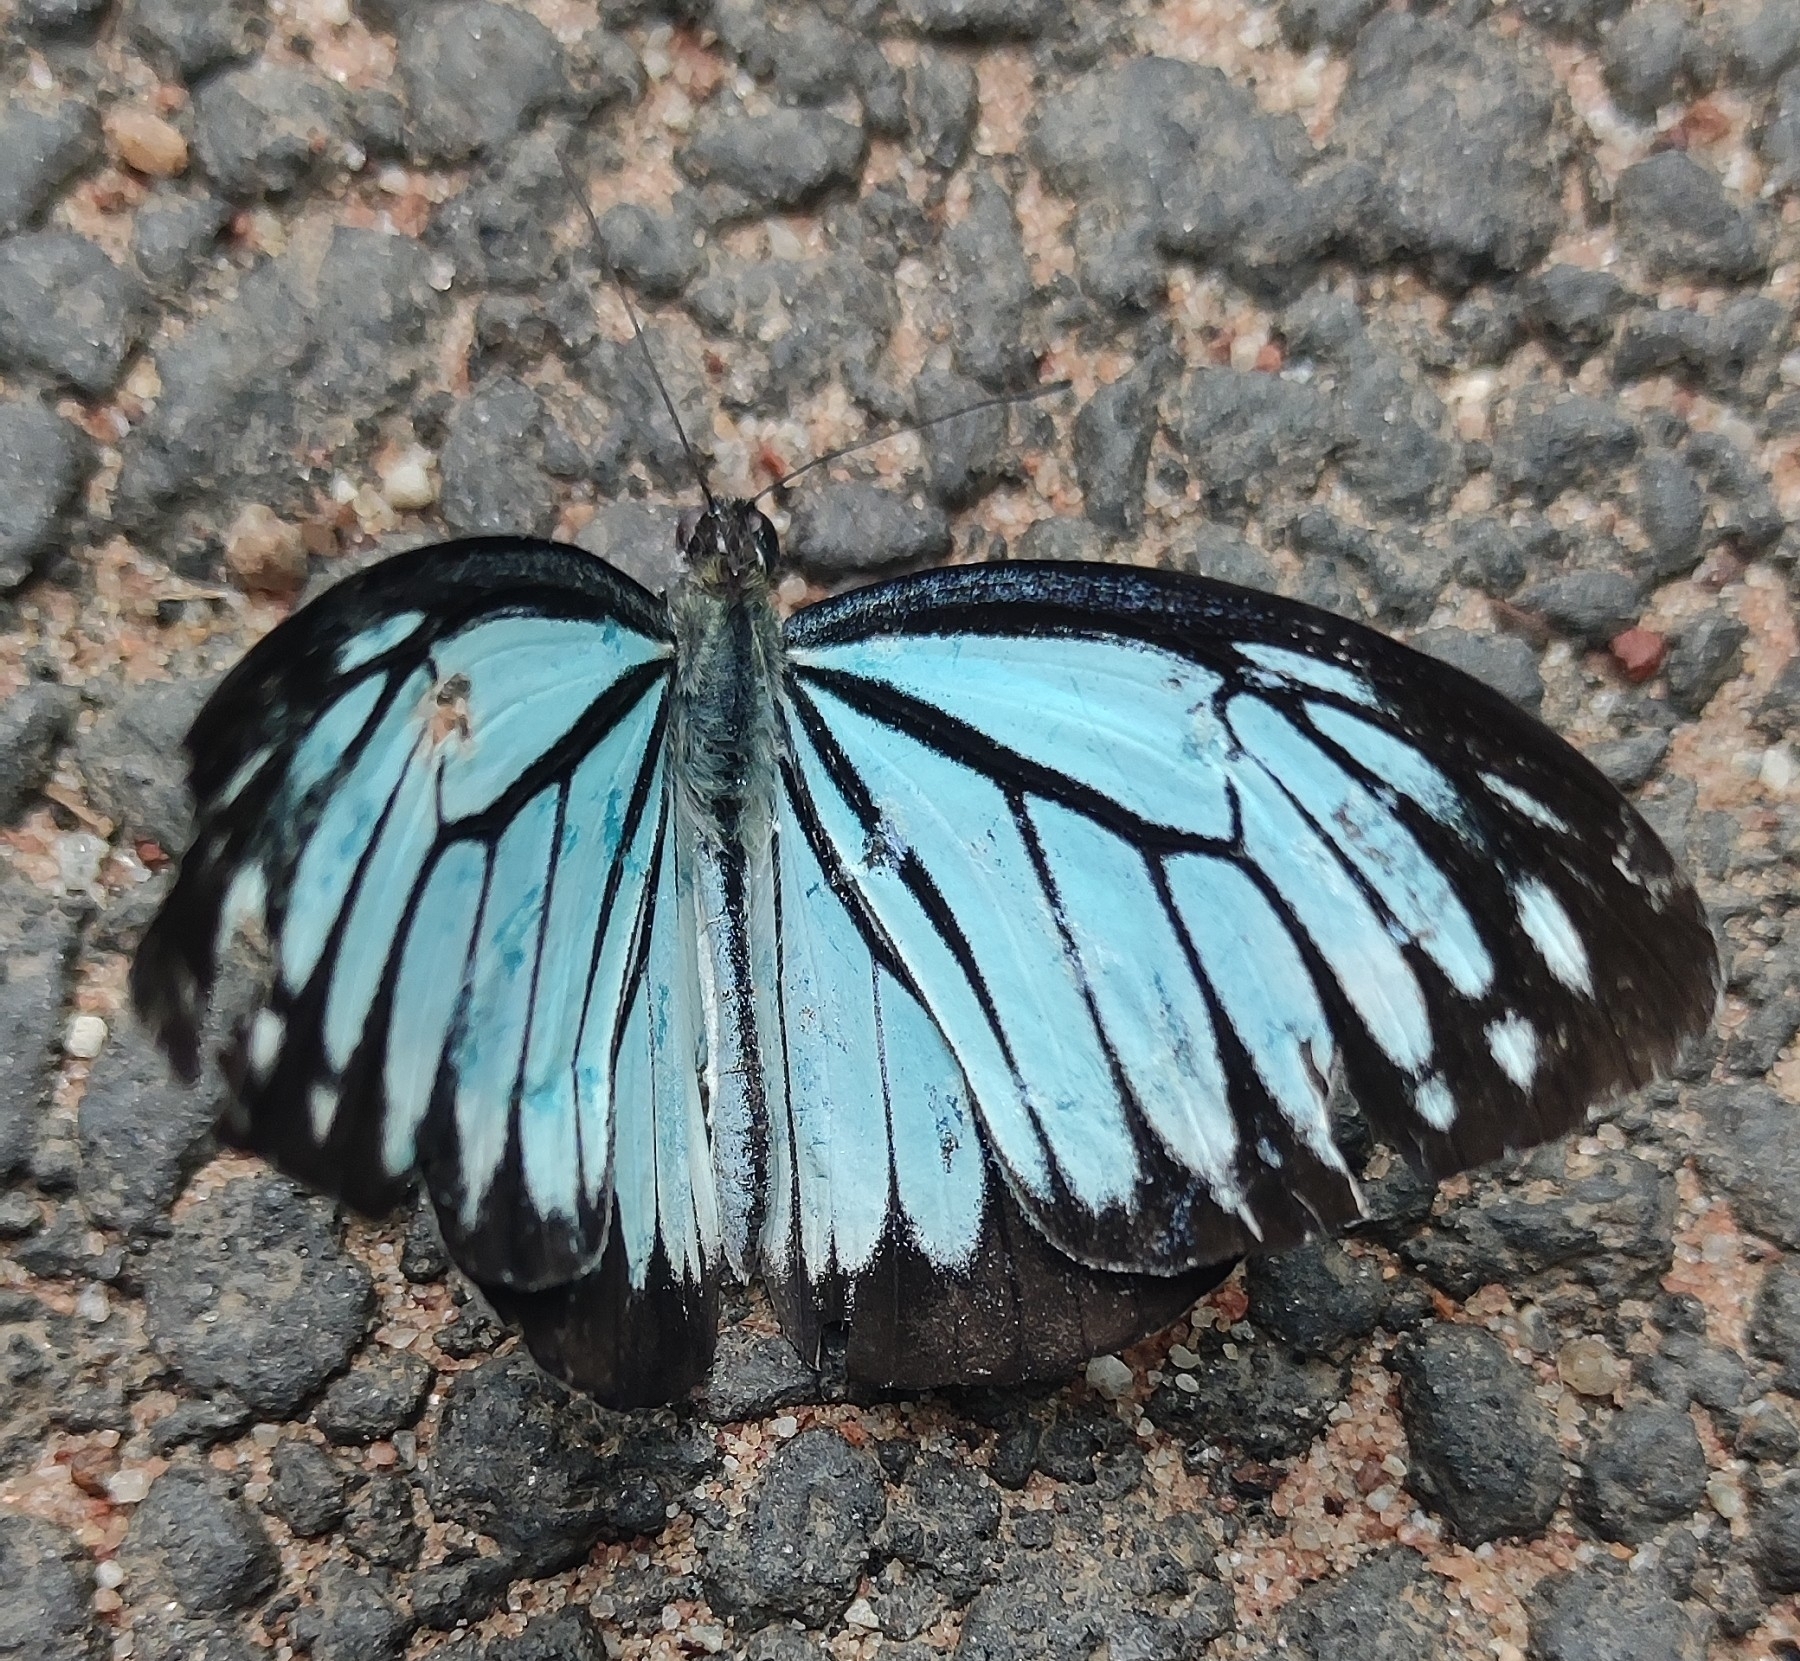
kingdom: Animalia
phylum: Arthropoda
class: Insecta
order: Lepidoptera
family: Pieridae
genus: Pareronia
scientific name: Pareronia hippia
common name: Indian wanderer
